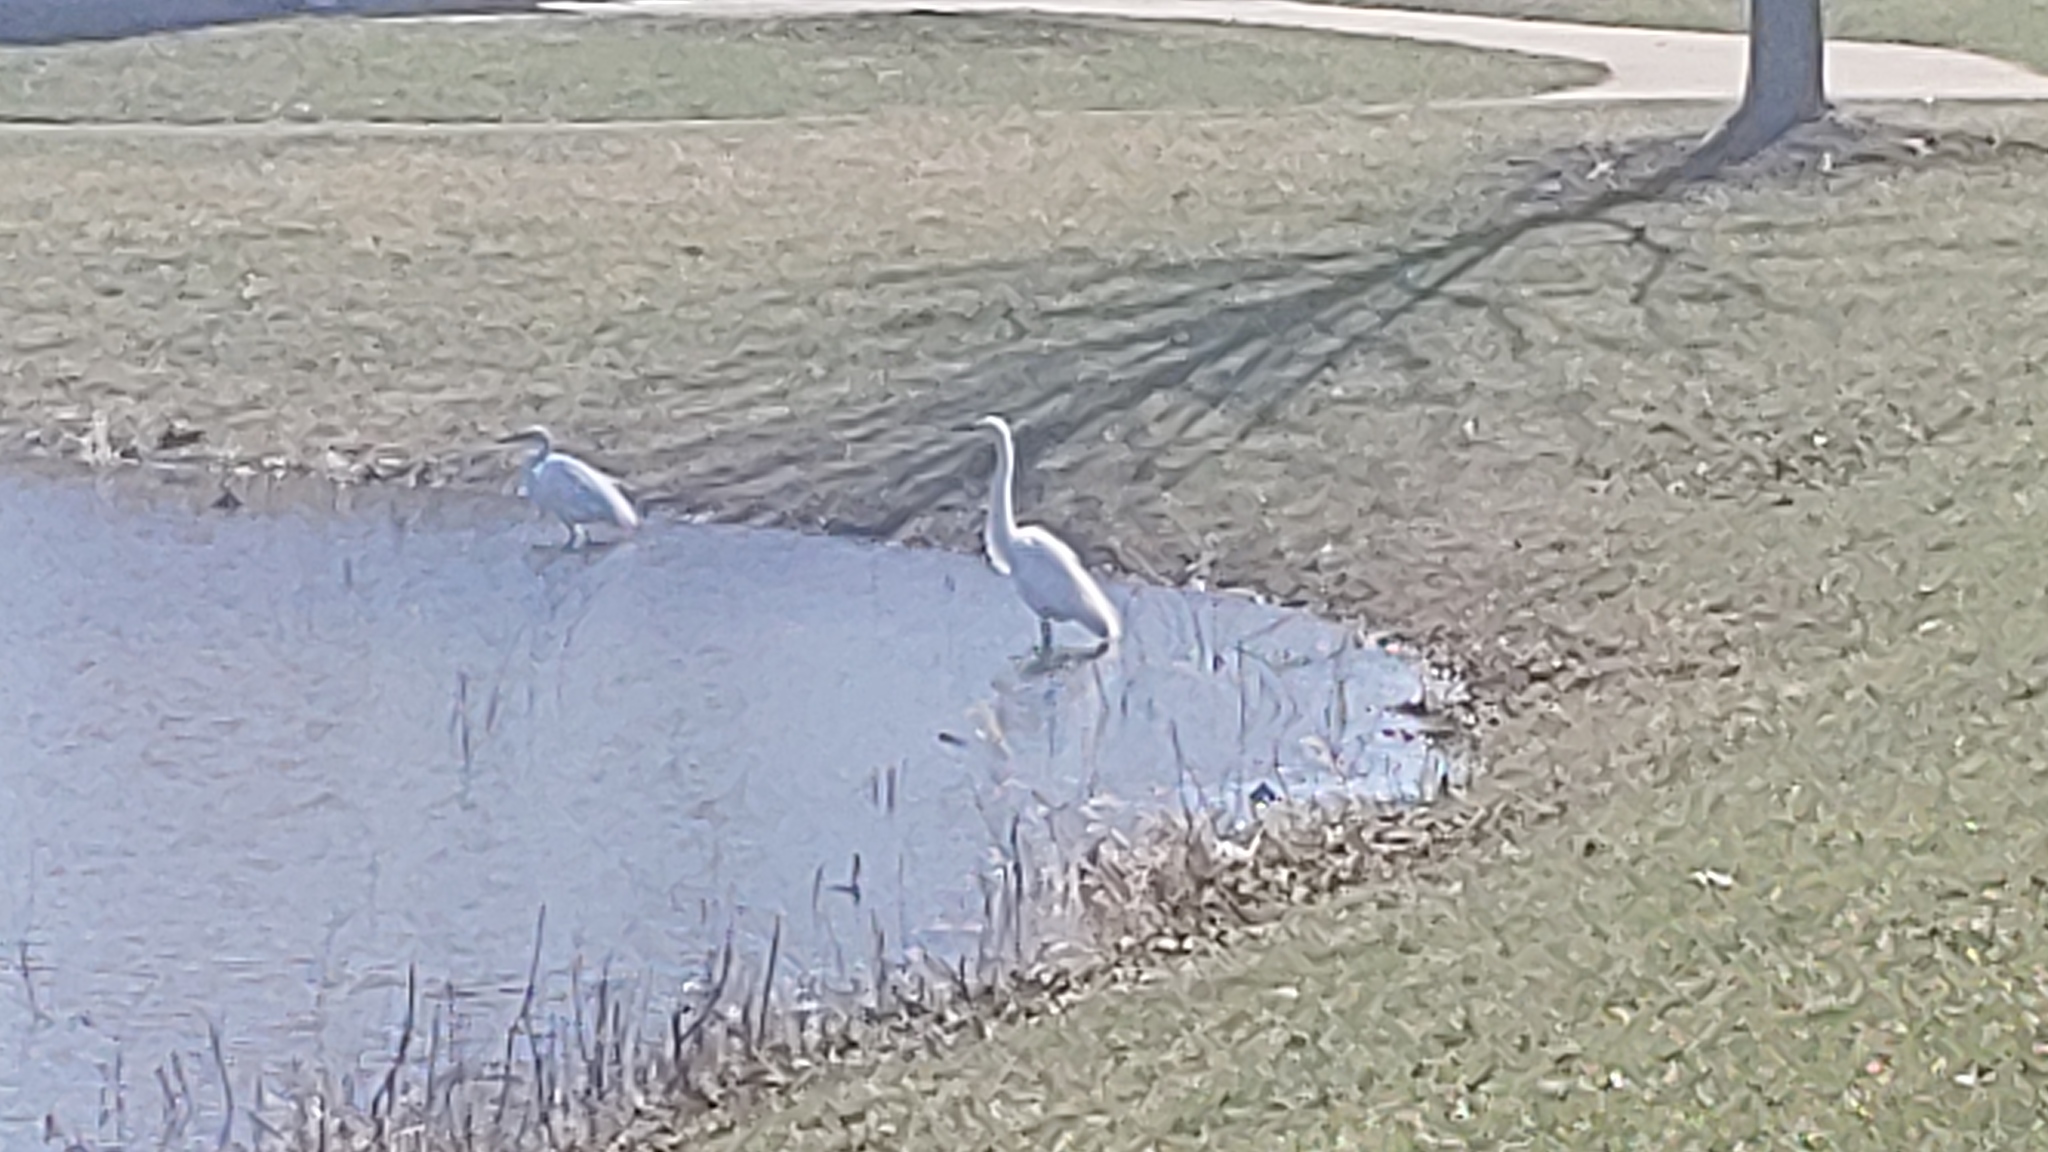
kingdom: Animalia
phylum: Chordata
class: Aves
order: Pelecaniformes
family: Ardeidae
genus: Ardea
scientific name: Ardea alba
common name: Great egret
